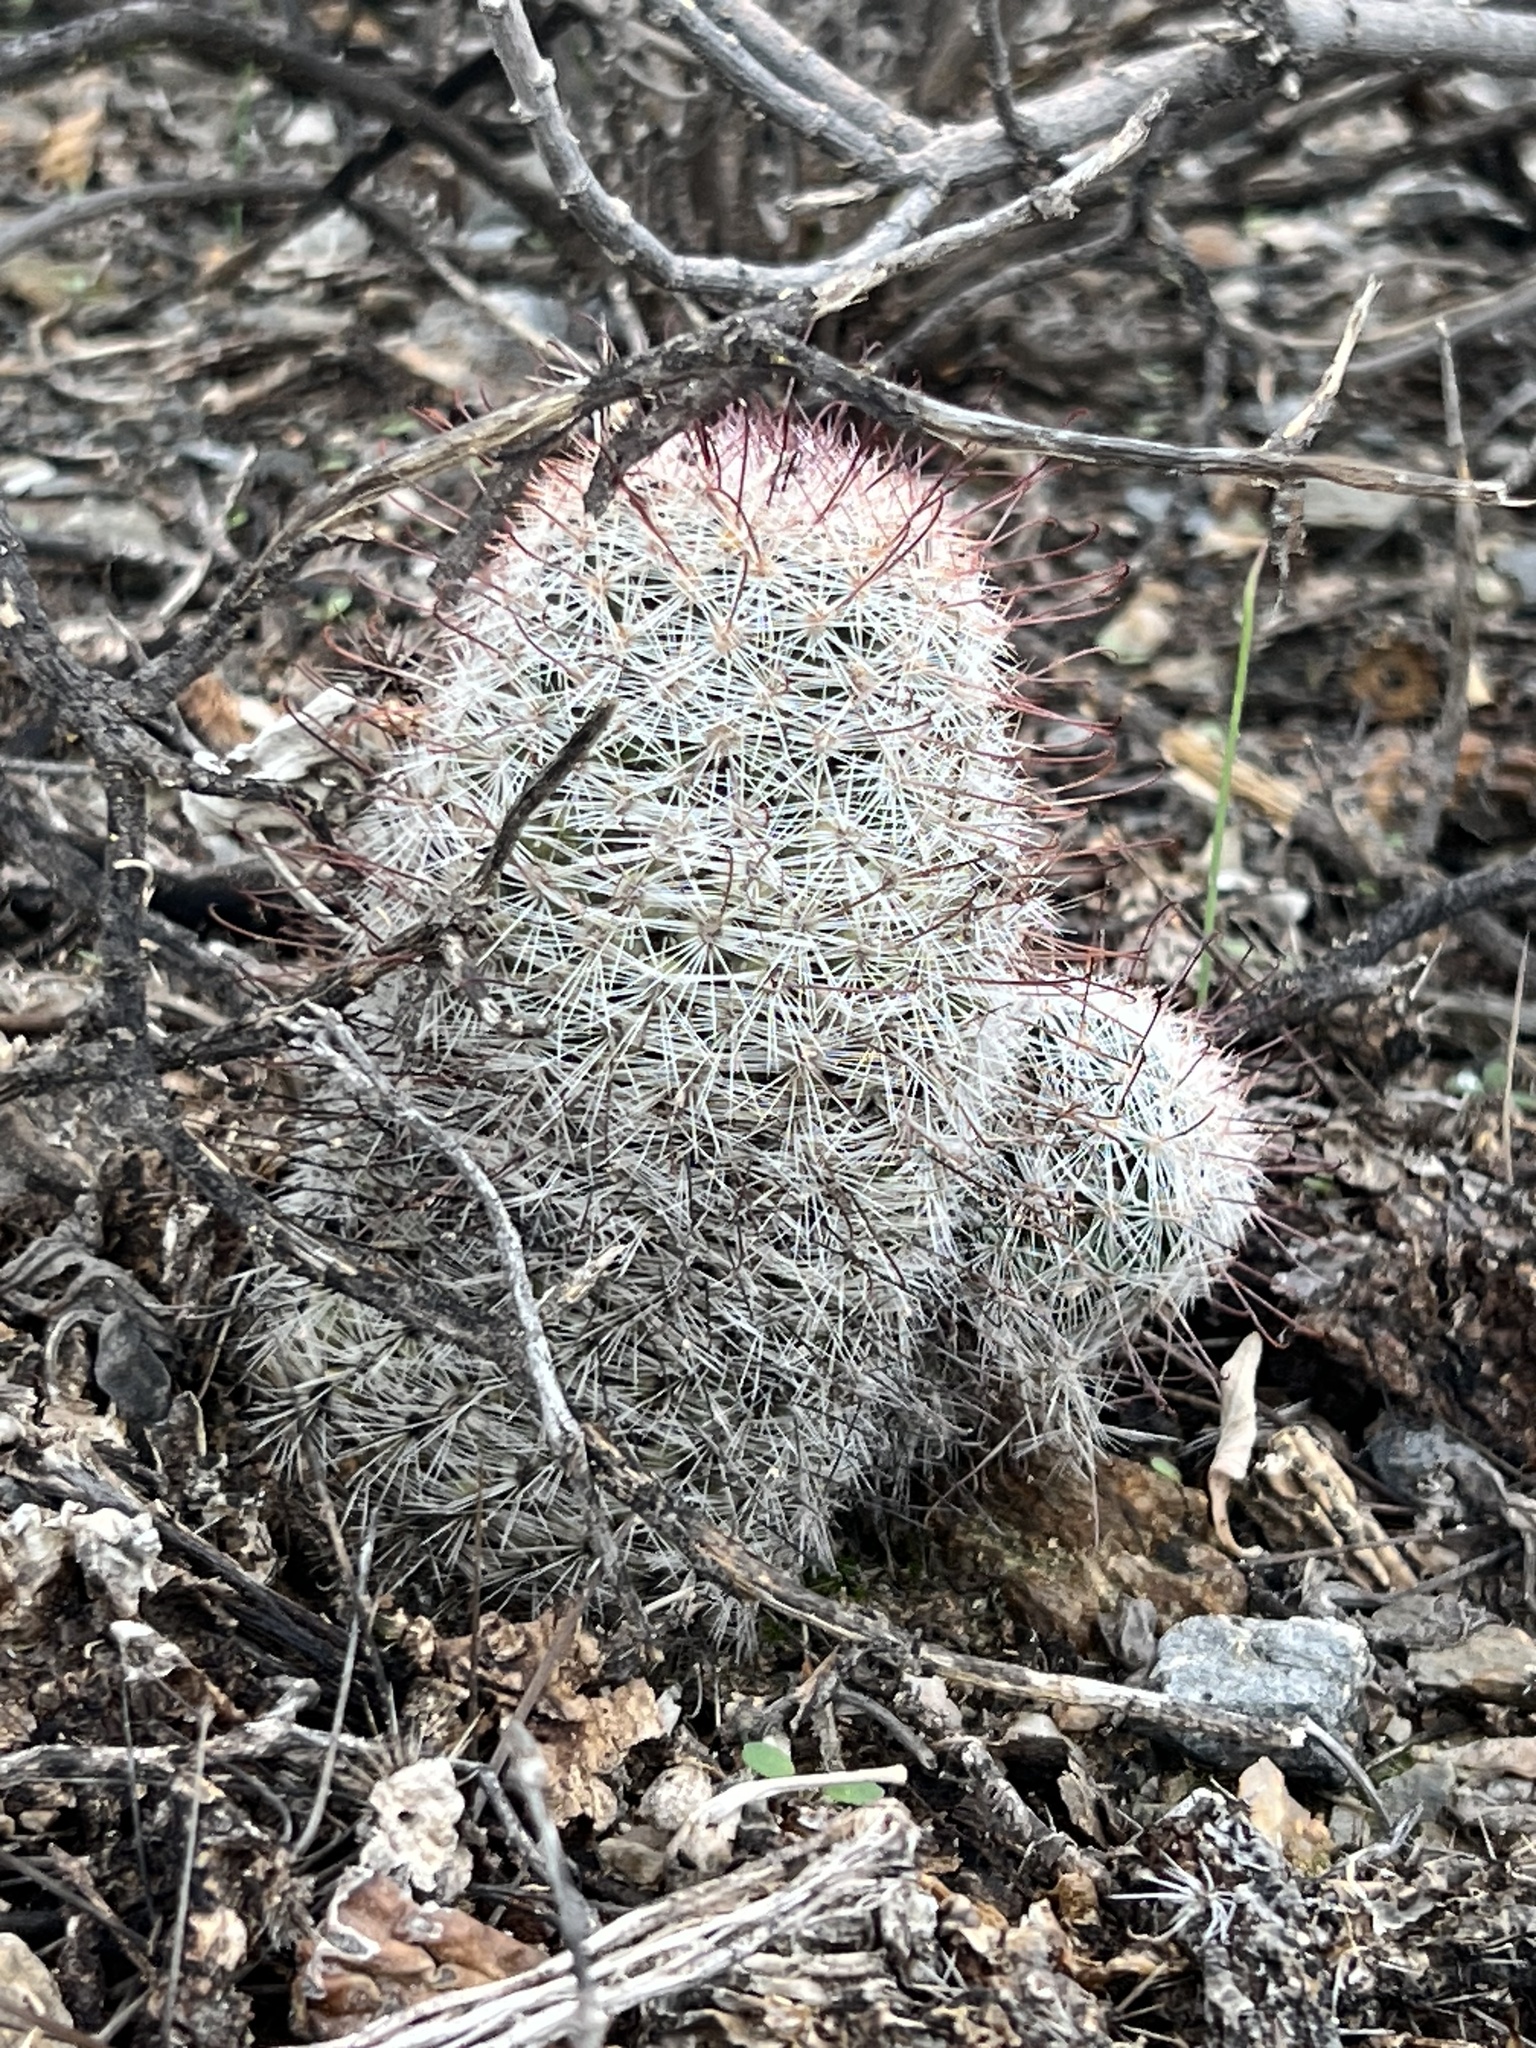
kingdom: Plantae
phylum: Tracheophyta
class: Magnoliopsida
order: Caryophyllales
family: Cactaceae
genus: Cochemiea
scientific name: Cochemiea grahamii
